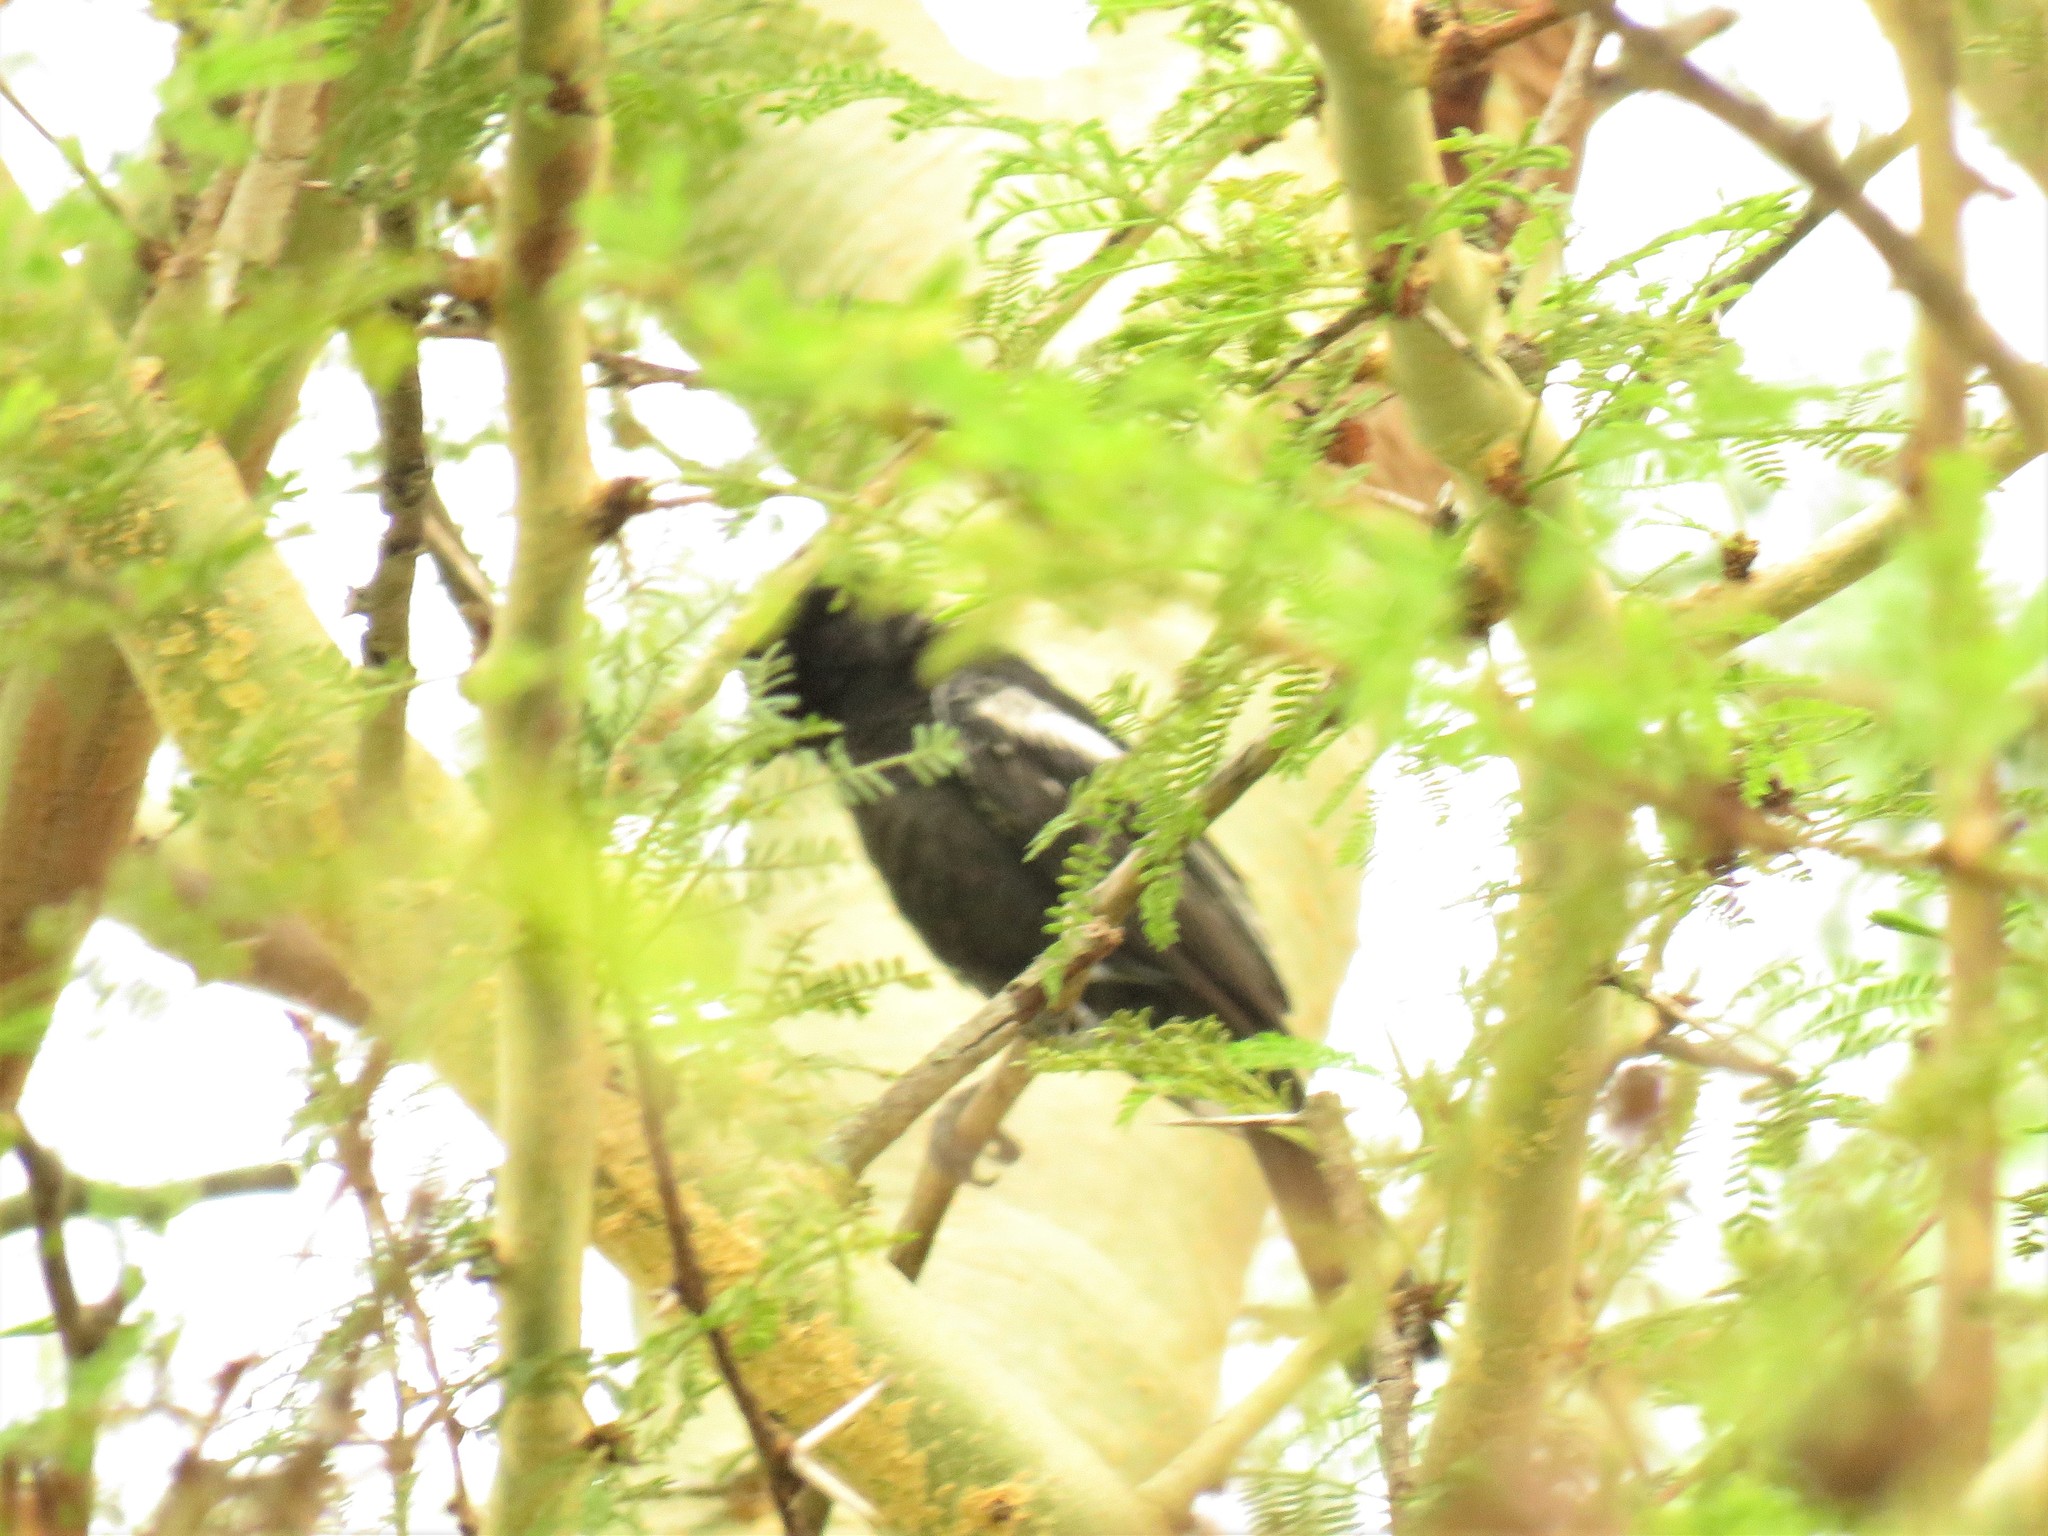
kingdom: Animalia
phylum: Chordata
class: Aves
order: Passeriformes
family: Paridae
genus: Parus
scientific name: Parus niger
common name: Southern black tit
